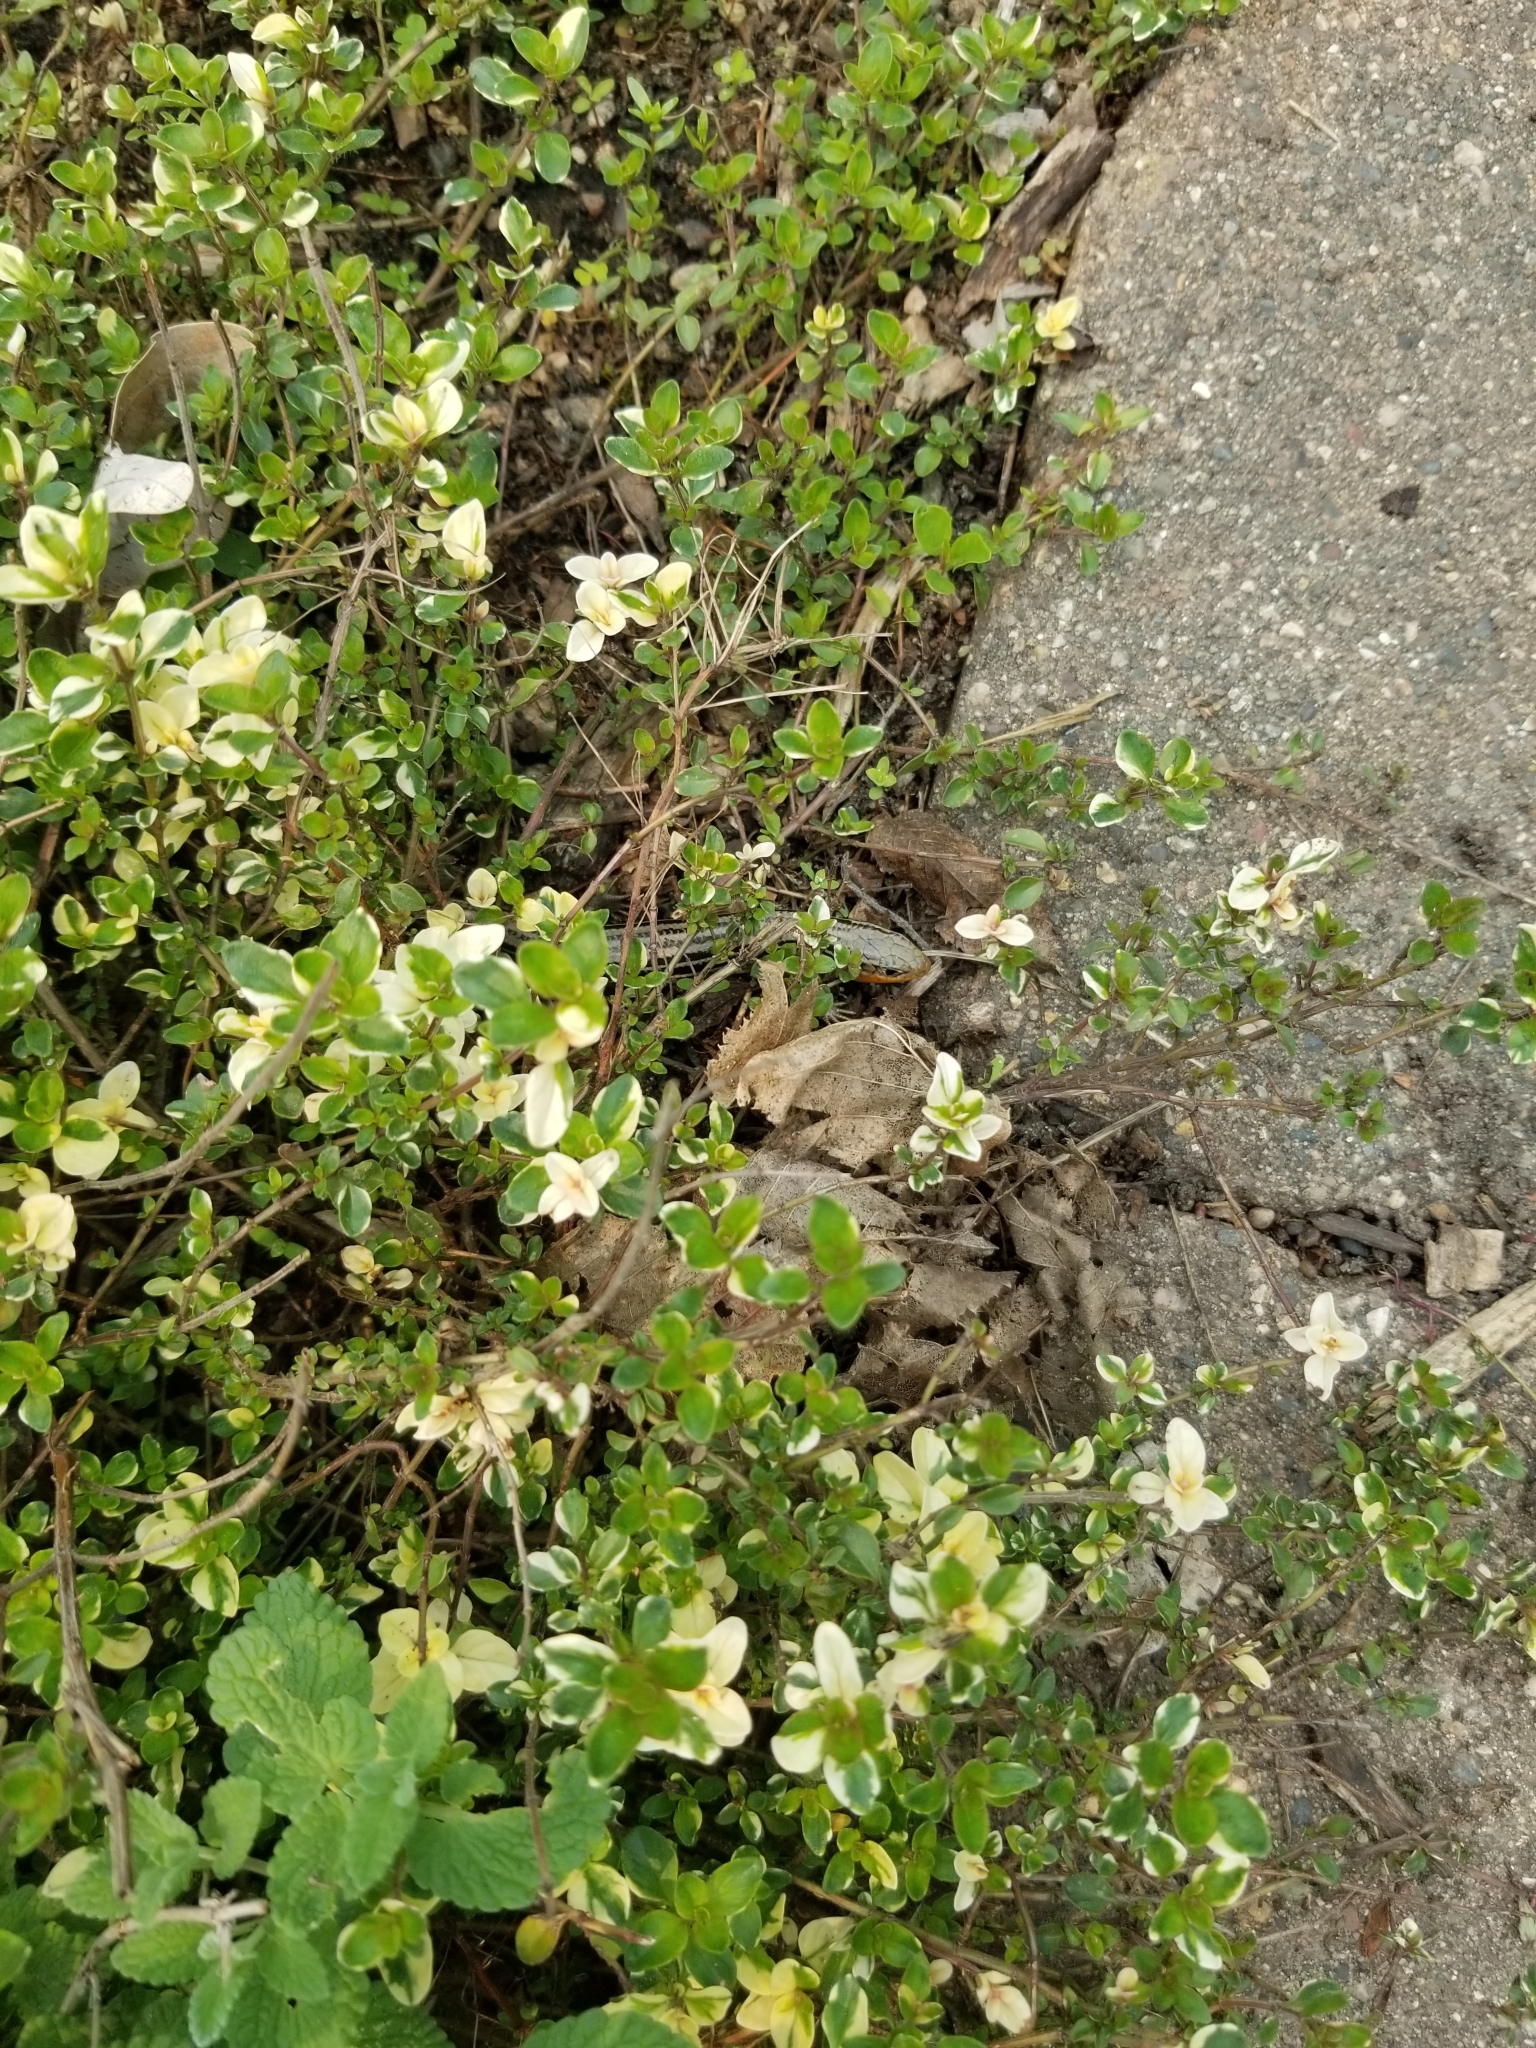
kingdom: Animalia
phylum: Chordata
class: Squamata
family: Scincidae
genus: Plestiodon
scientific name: Plestiodon septentrionalis
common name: Northern prairie skink
